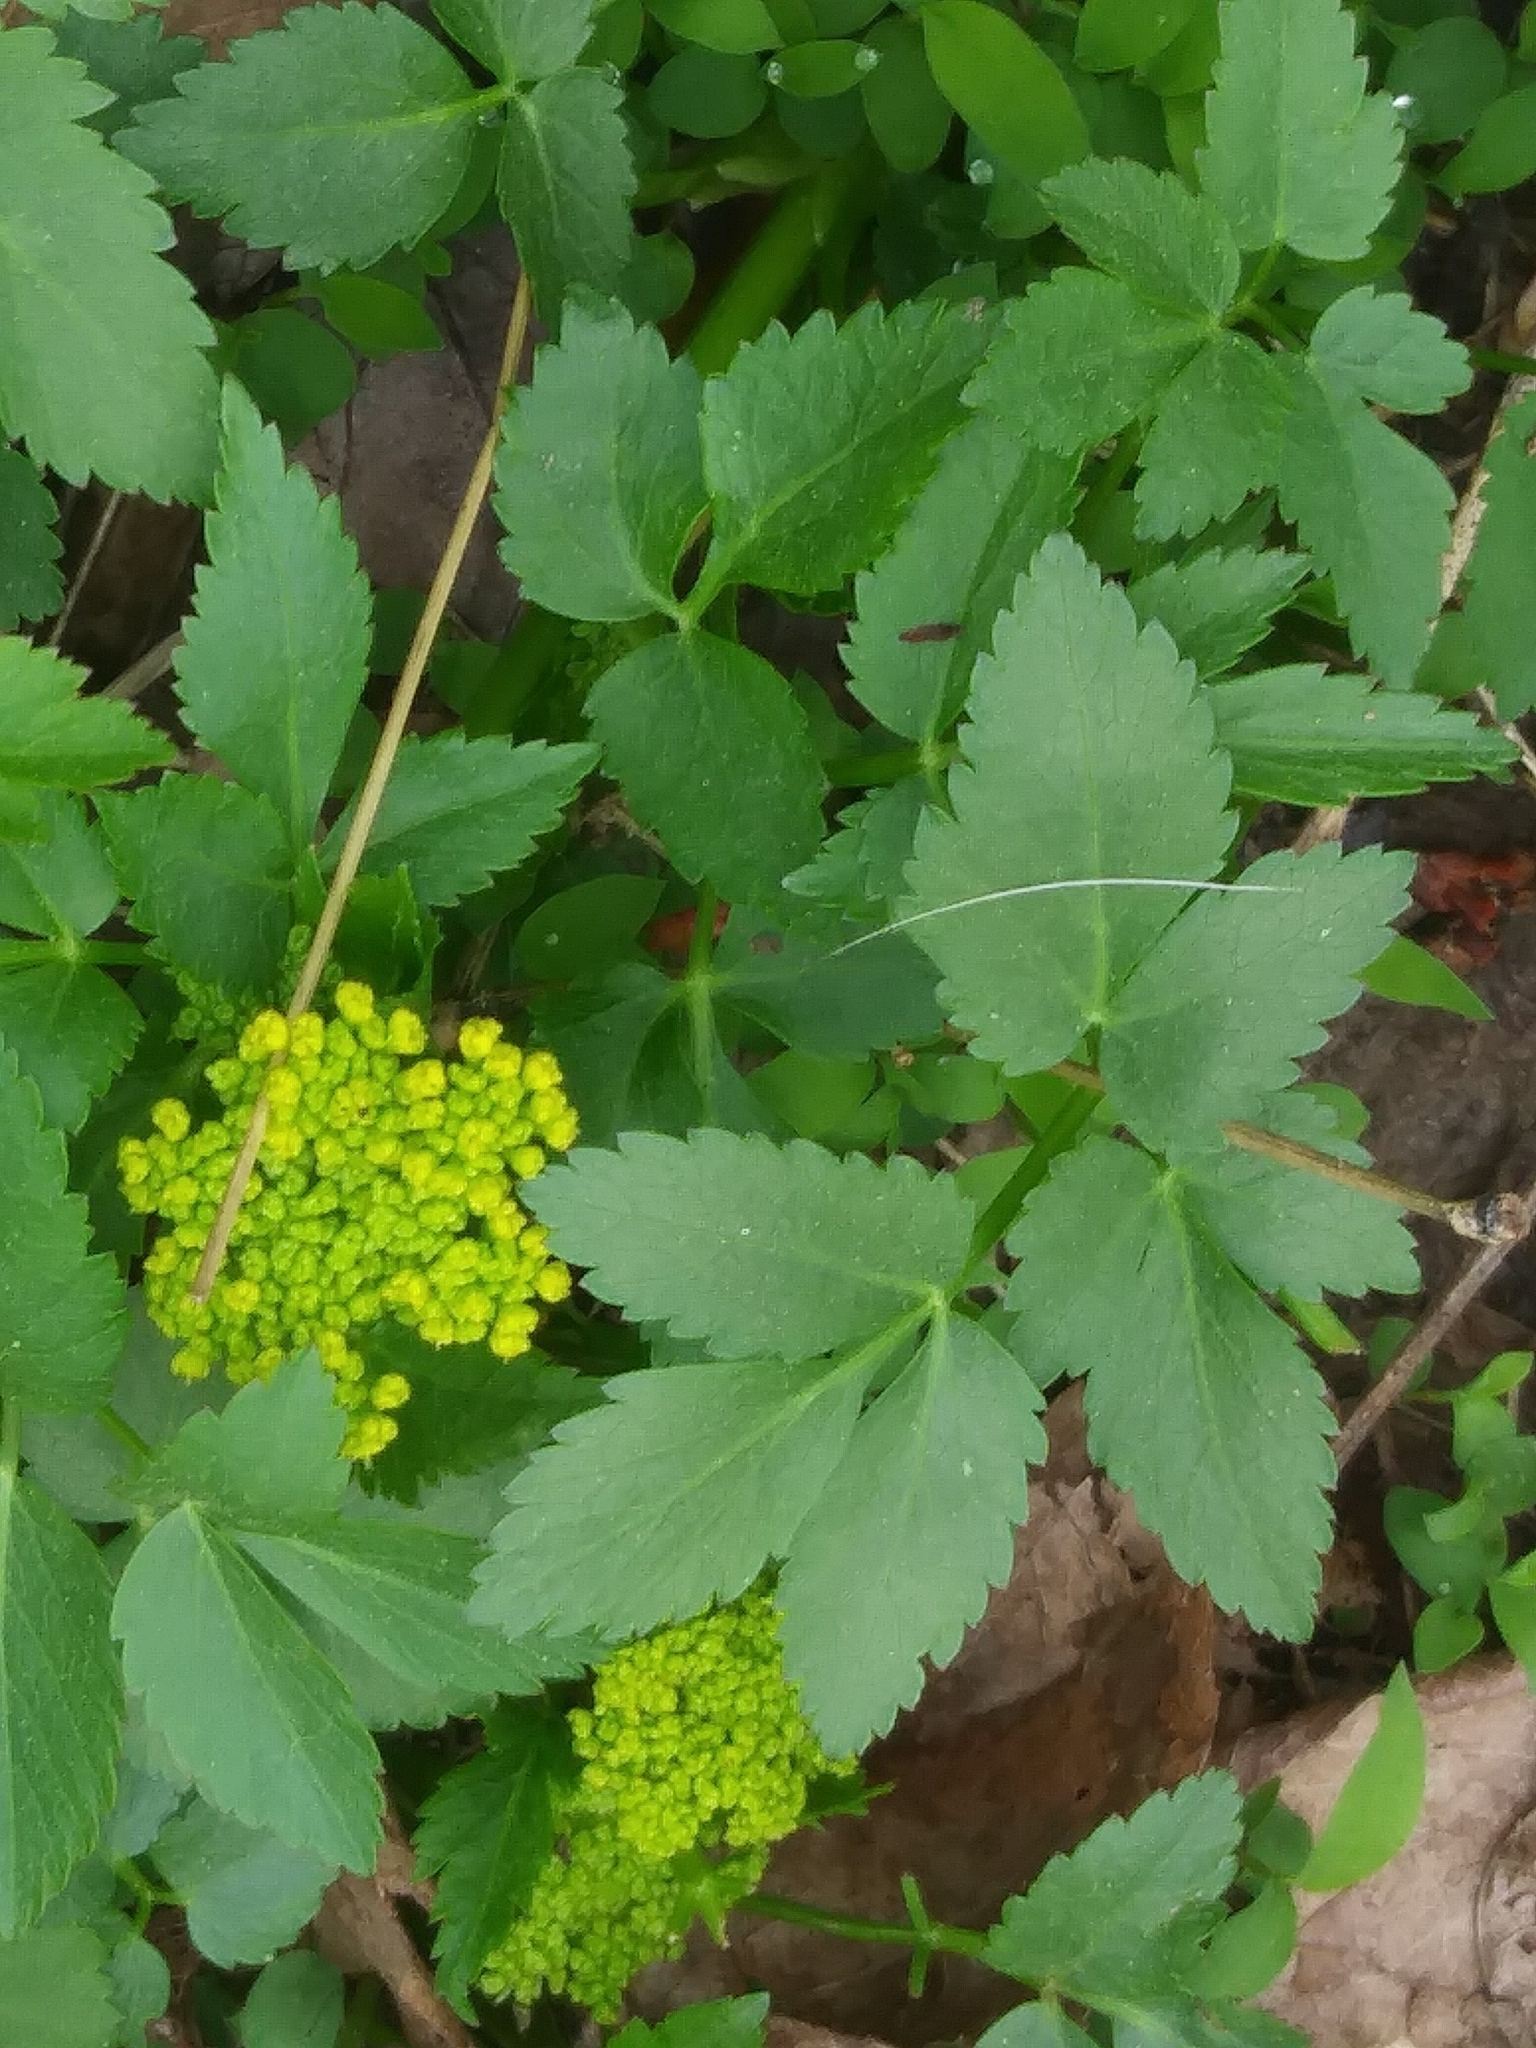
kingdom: Plantae
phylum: Tracheophyta
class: Magnoliopsida
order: Apiales
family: Apiaceae
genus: Zizia
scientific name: Zizia aurea
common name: Golden alexanders
